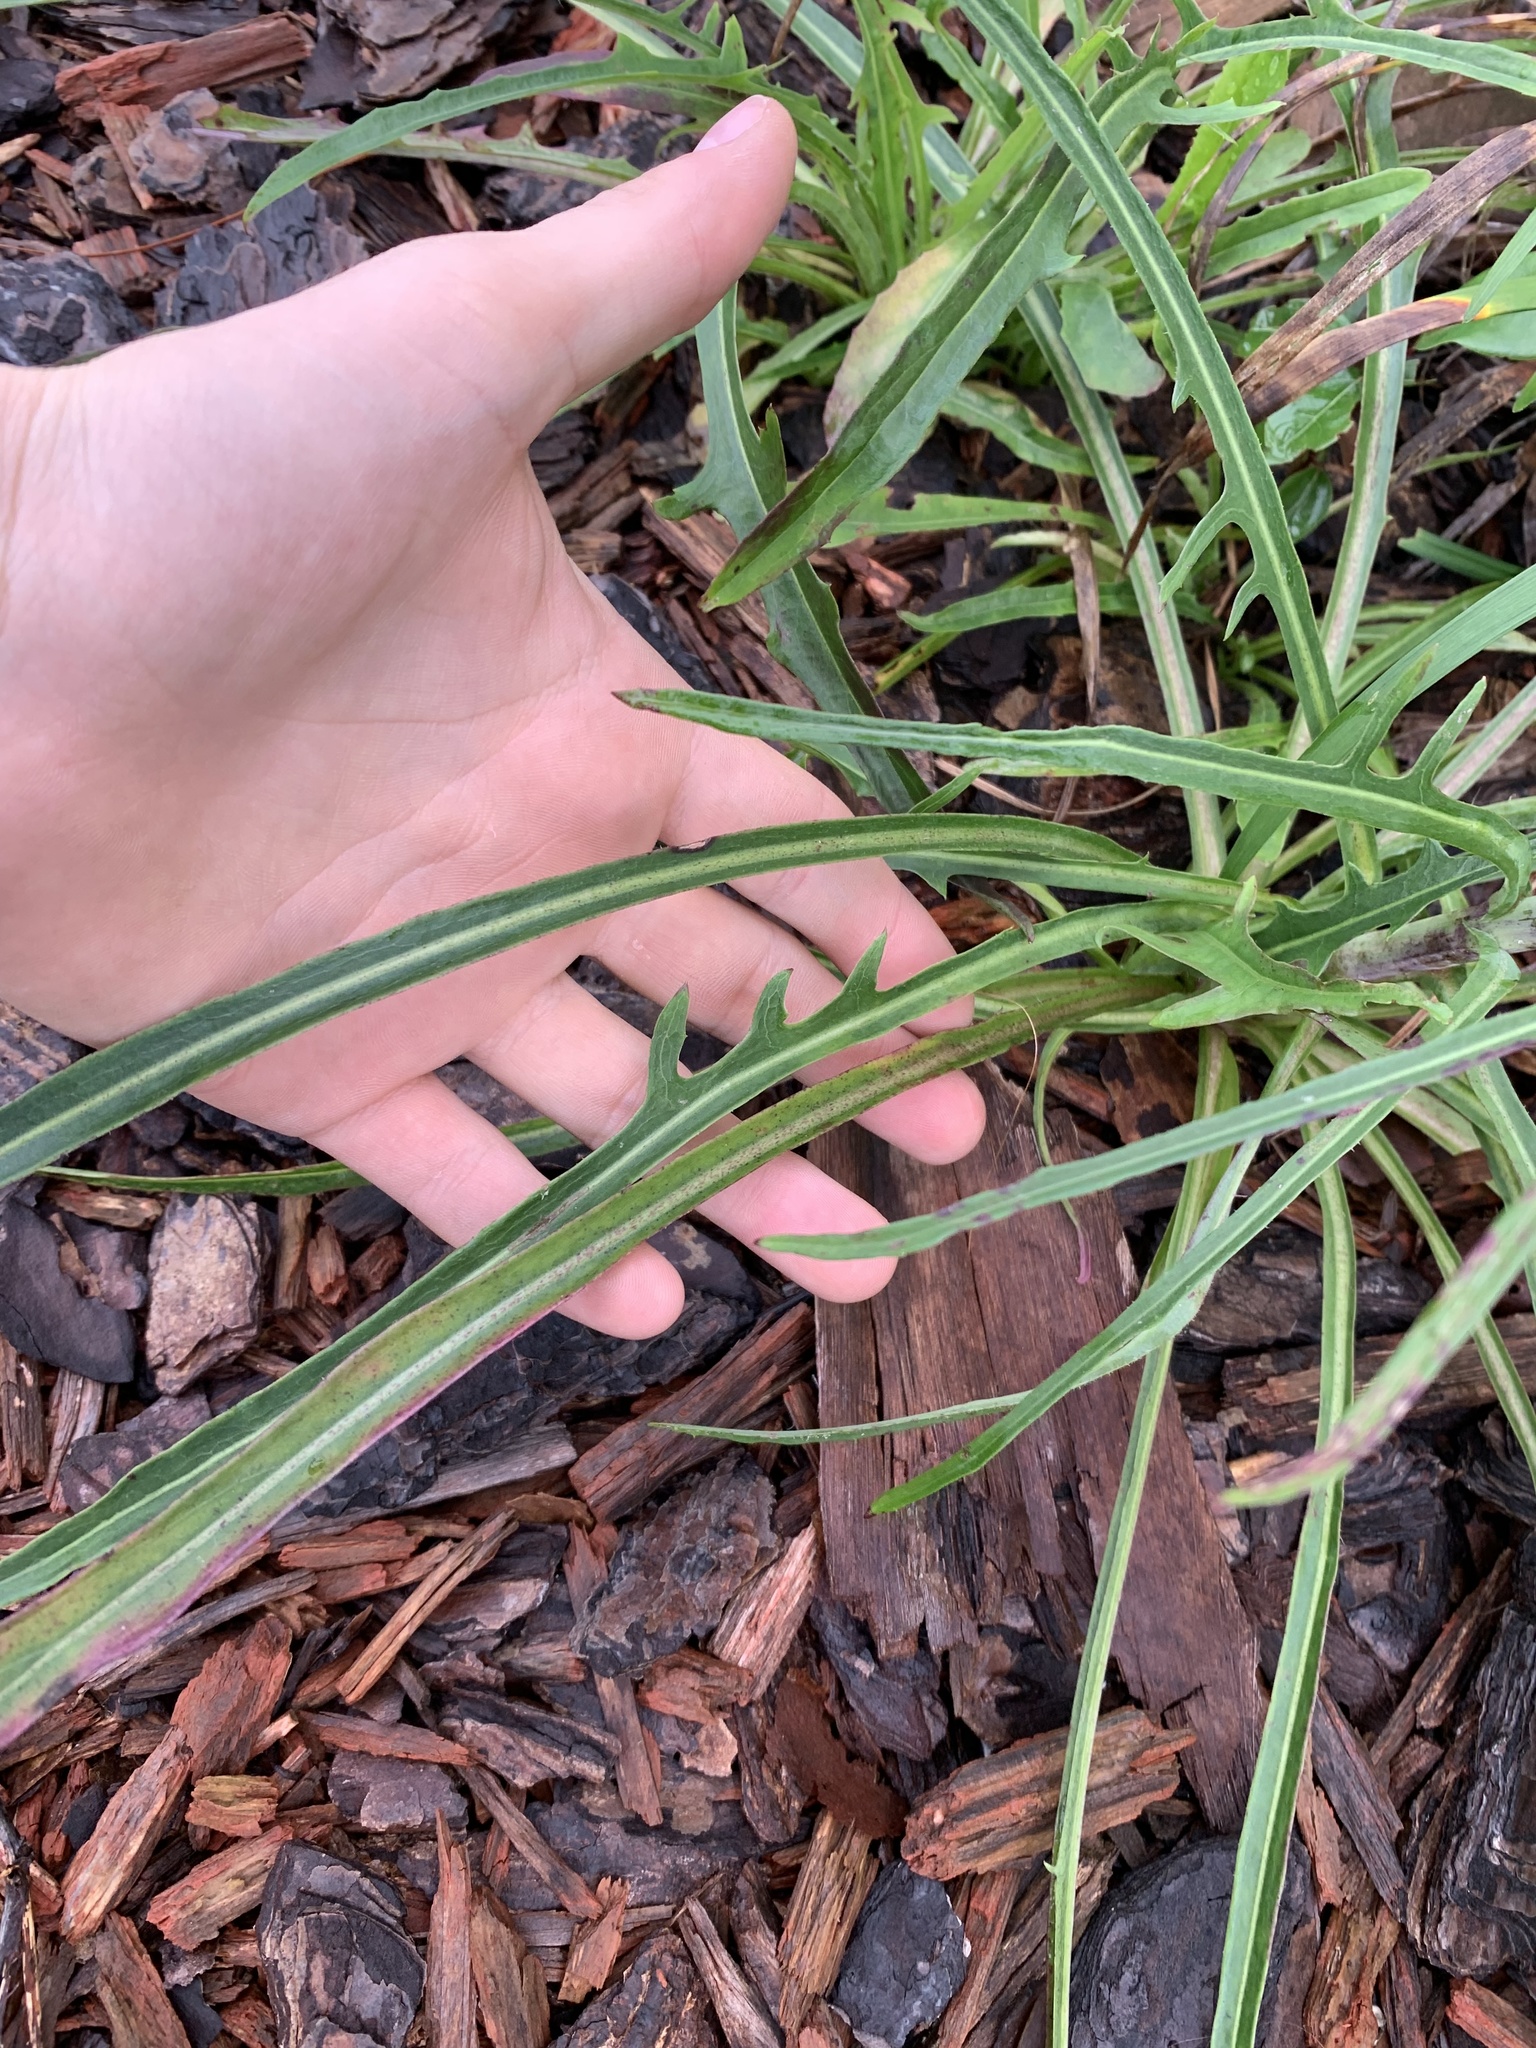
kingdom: Plantae
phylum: Tracheophyta
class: Magnoliopsida
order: Asterales
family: Asteraceae
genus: Lactuca
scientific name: Lactuca graminifolia
